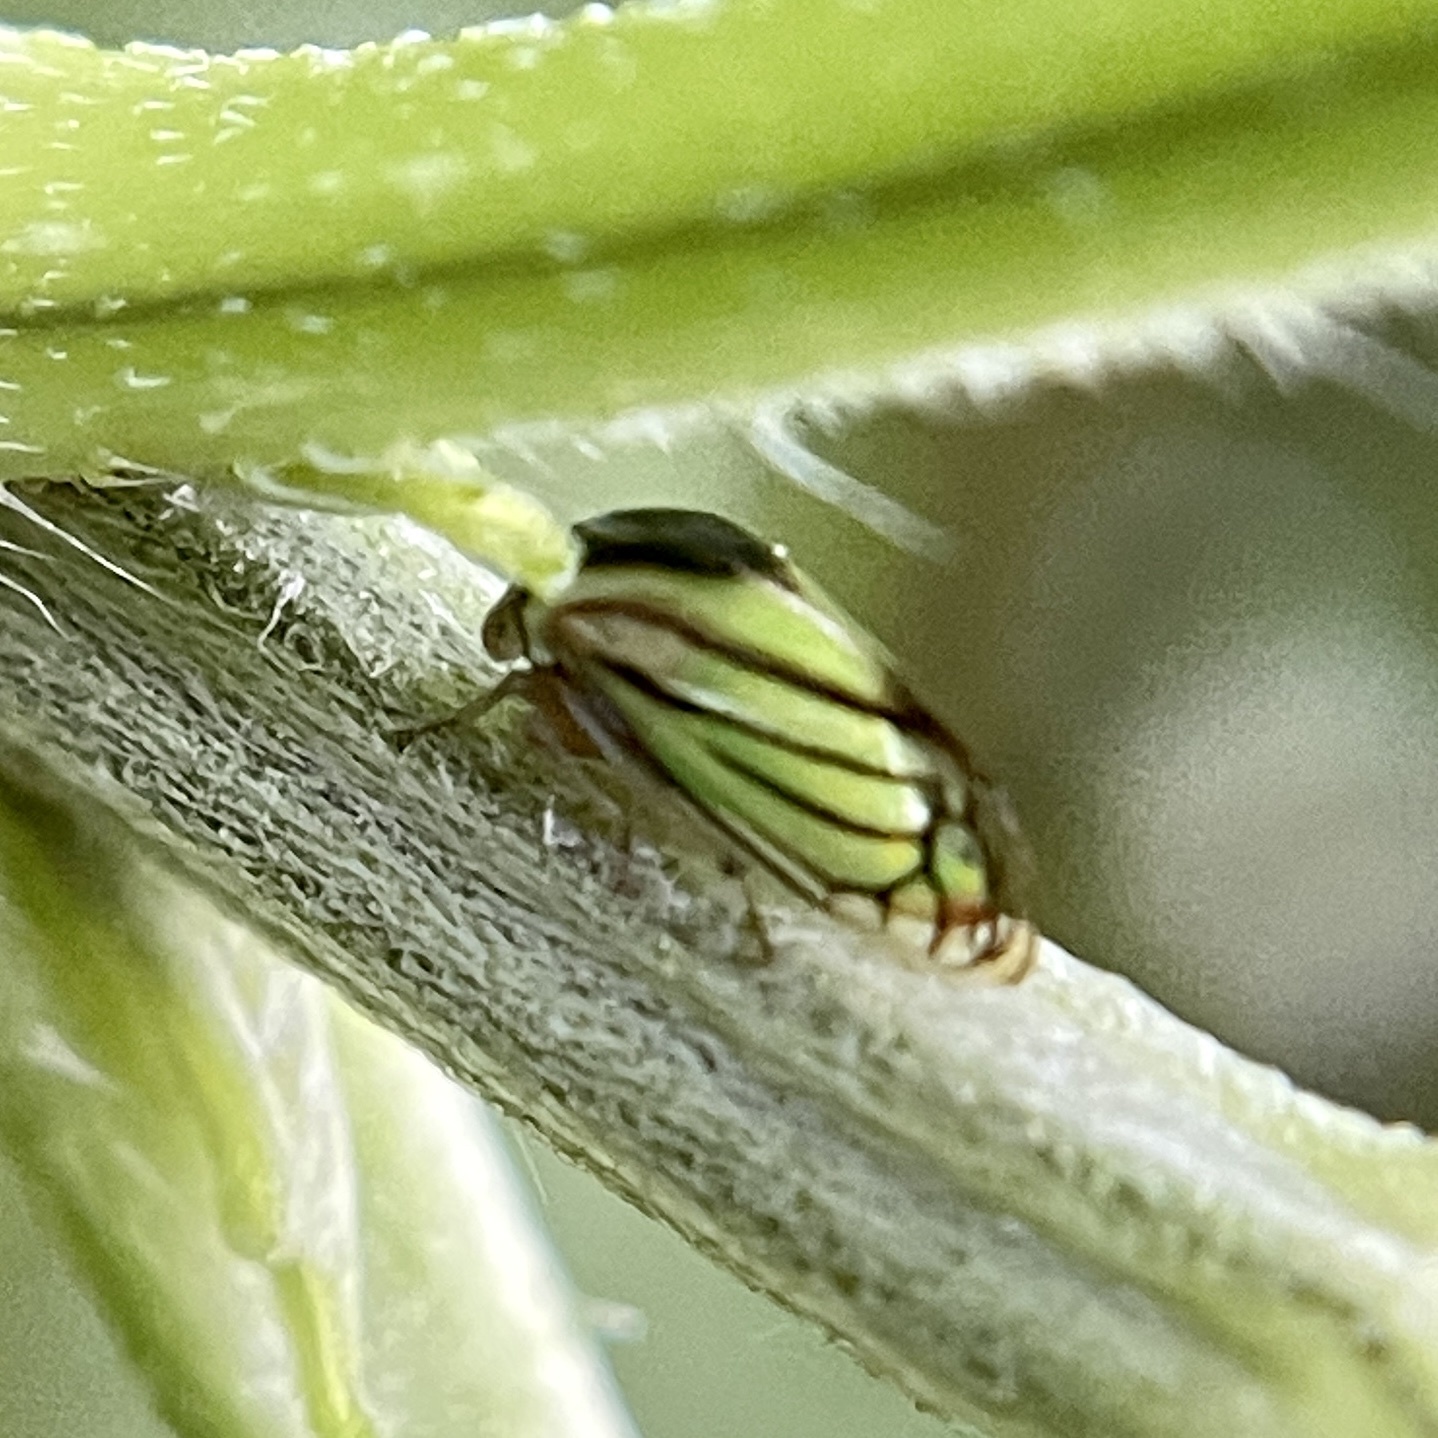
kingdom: Animalia
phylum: Arthropoda
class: Insecta
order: Hemiptera
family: Membracidae
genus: Acutalis
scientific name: Acutalis tartarea
